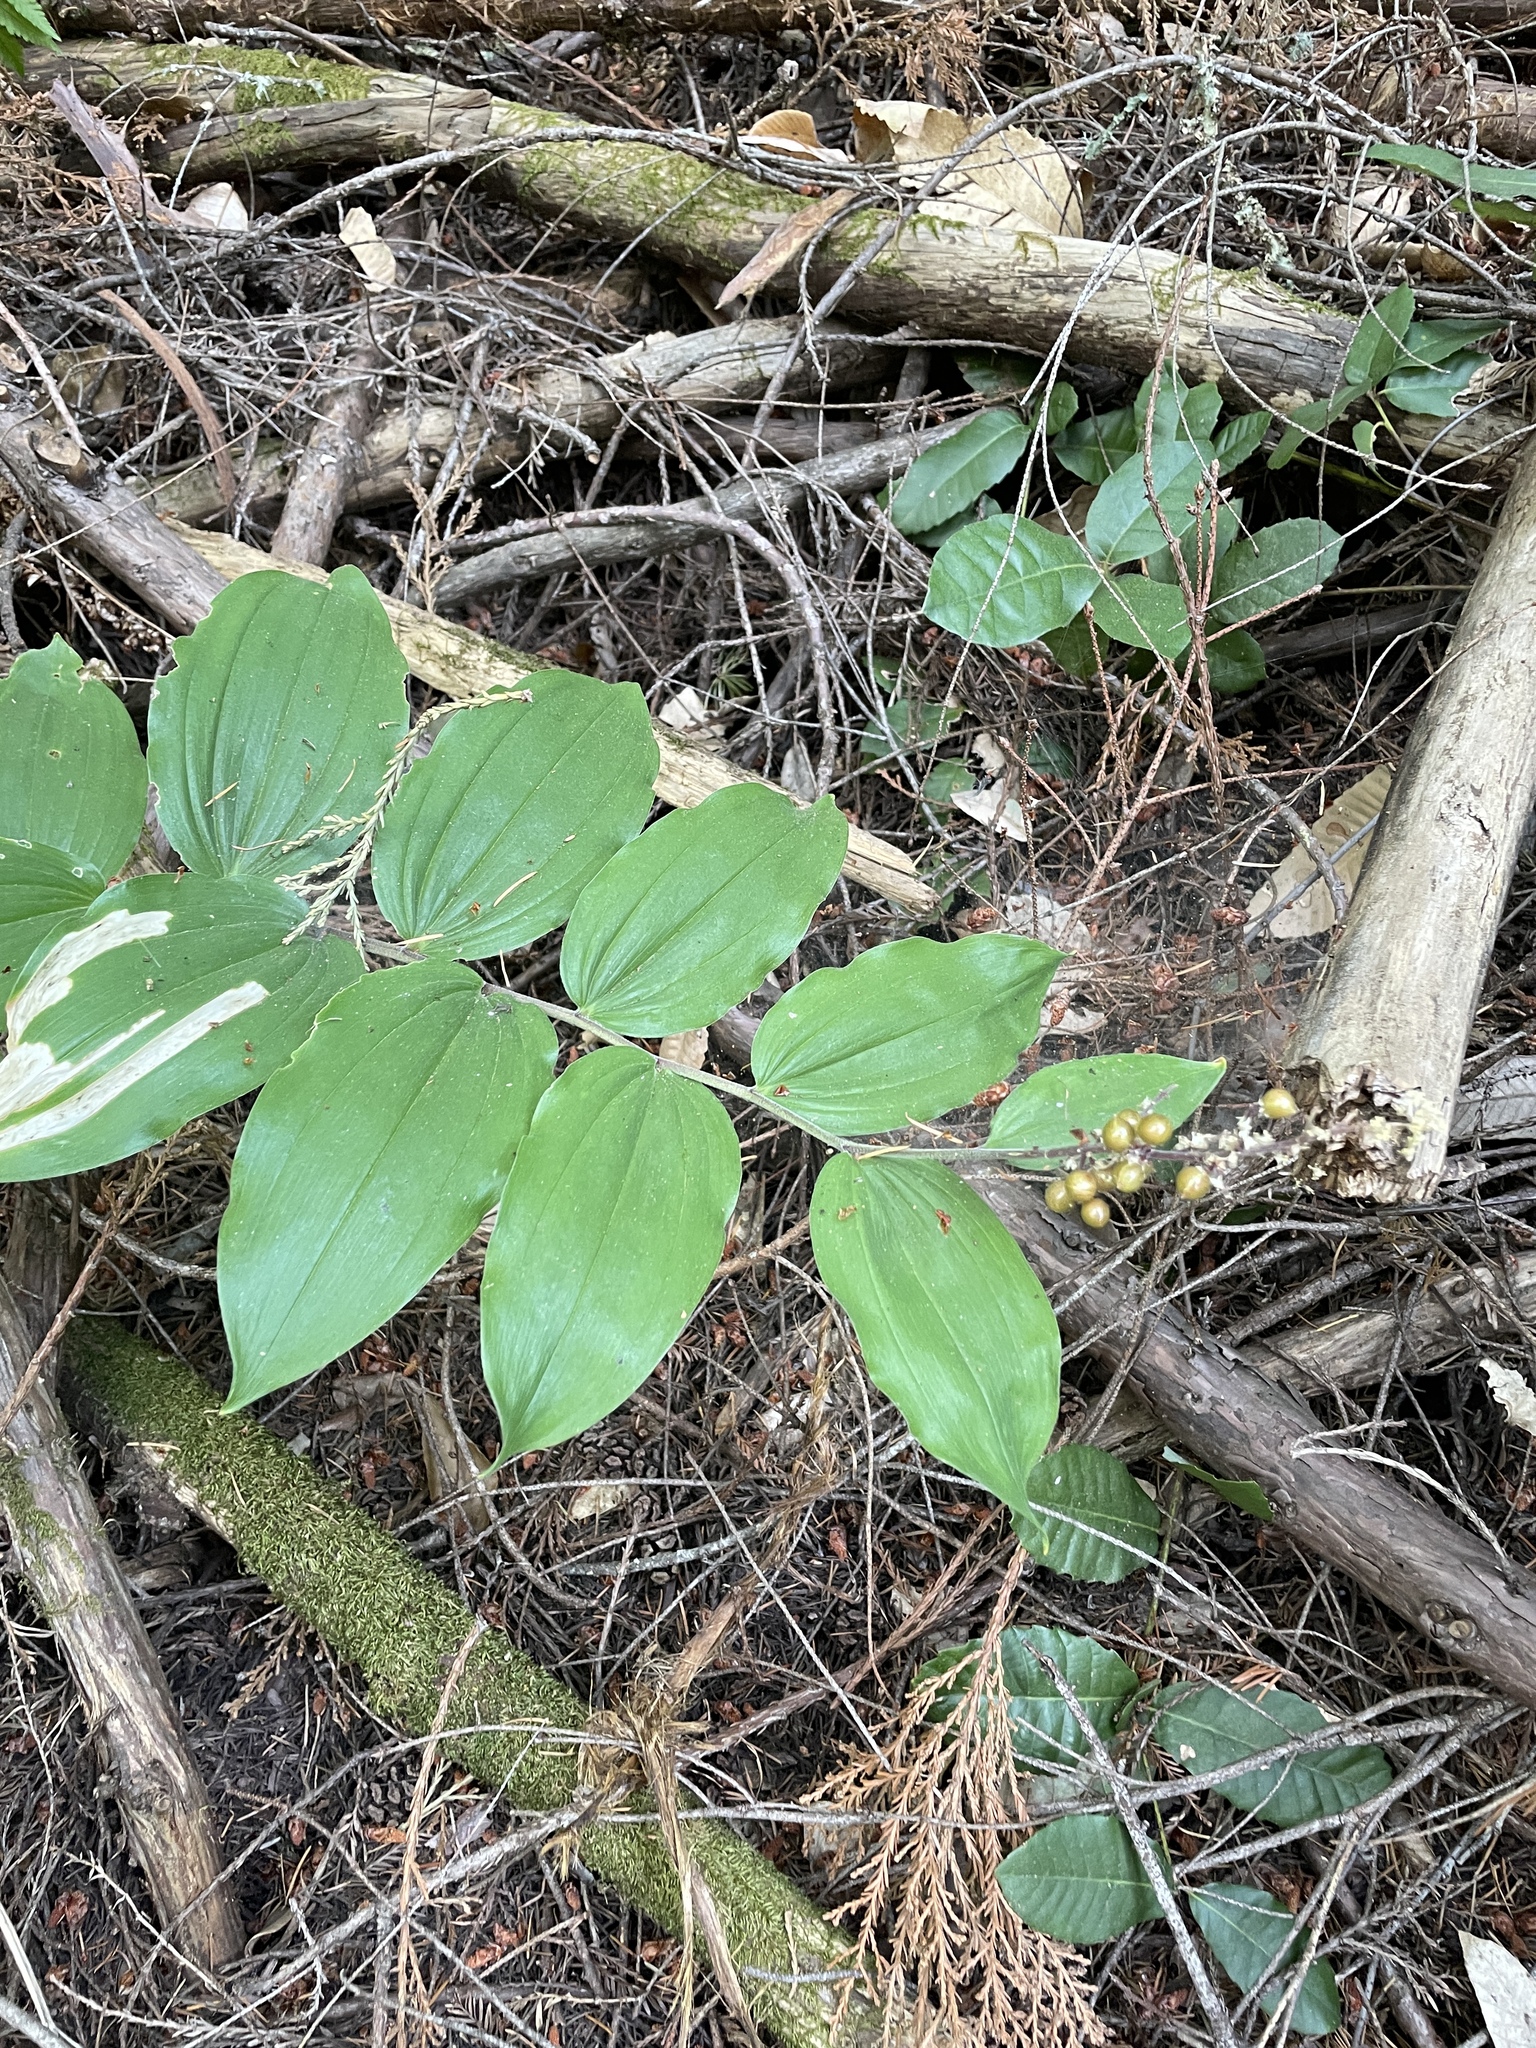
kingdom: Plantae
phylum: Tracheophyta
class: Liliopsida
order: Asparagales
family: Asparagaceae
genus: Maianthemum
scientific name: Maianthemum racemosum
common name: False spikenard
